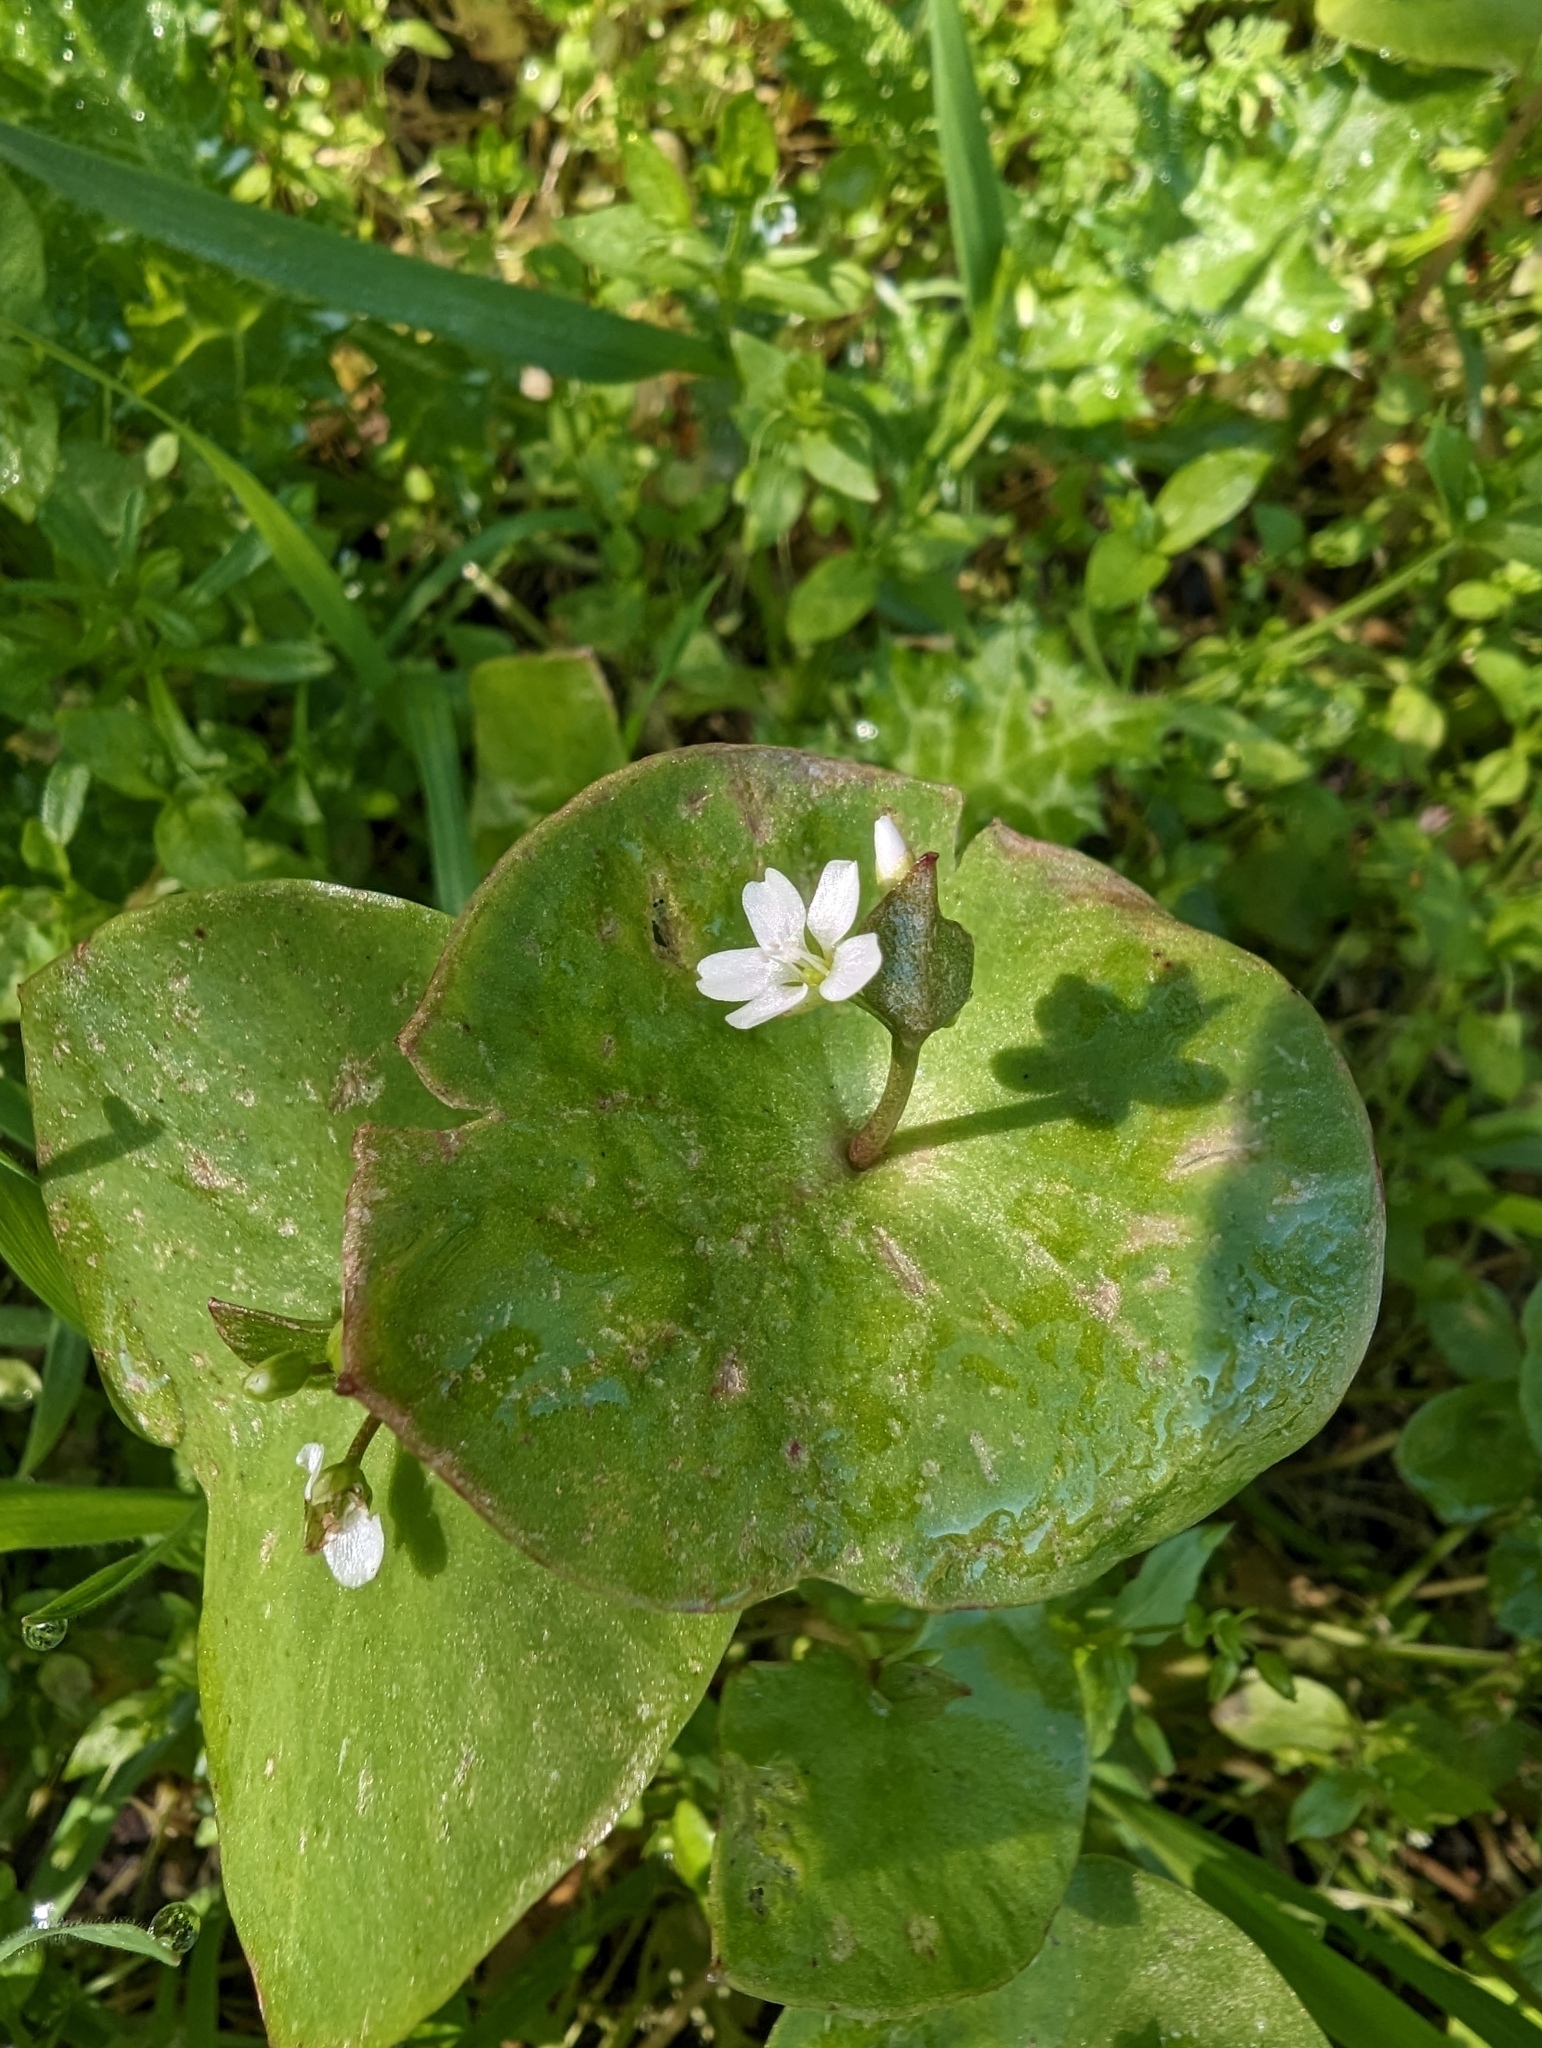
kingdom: Plantae
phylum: Tracheophyta
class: Magnoliopsida
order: Caryophyllales
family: Montiaceae
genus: Claytonia
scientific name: Claytonia perfoliata
